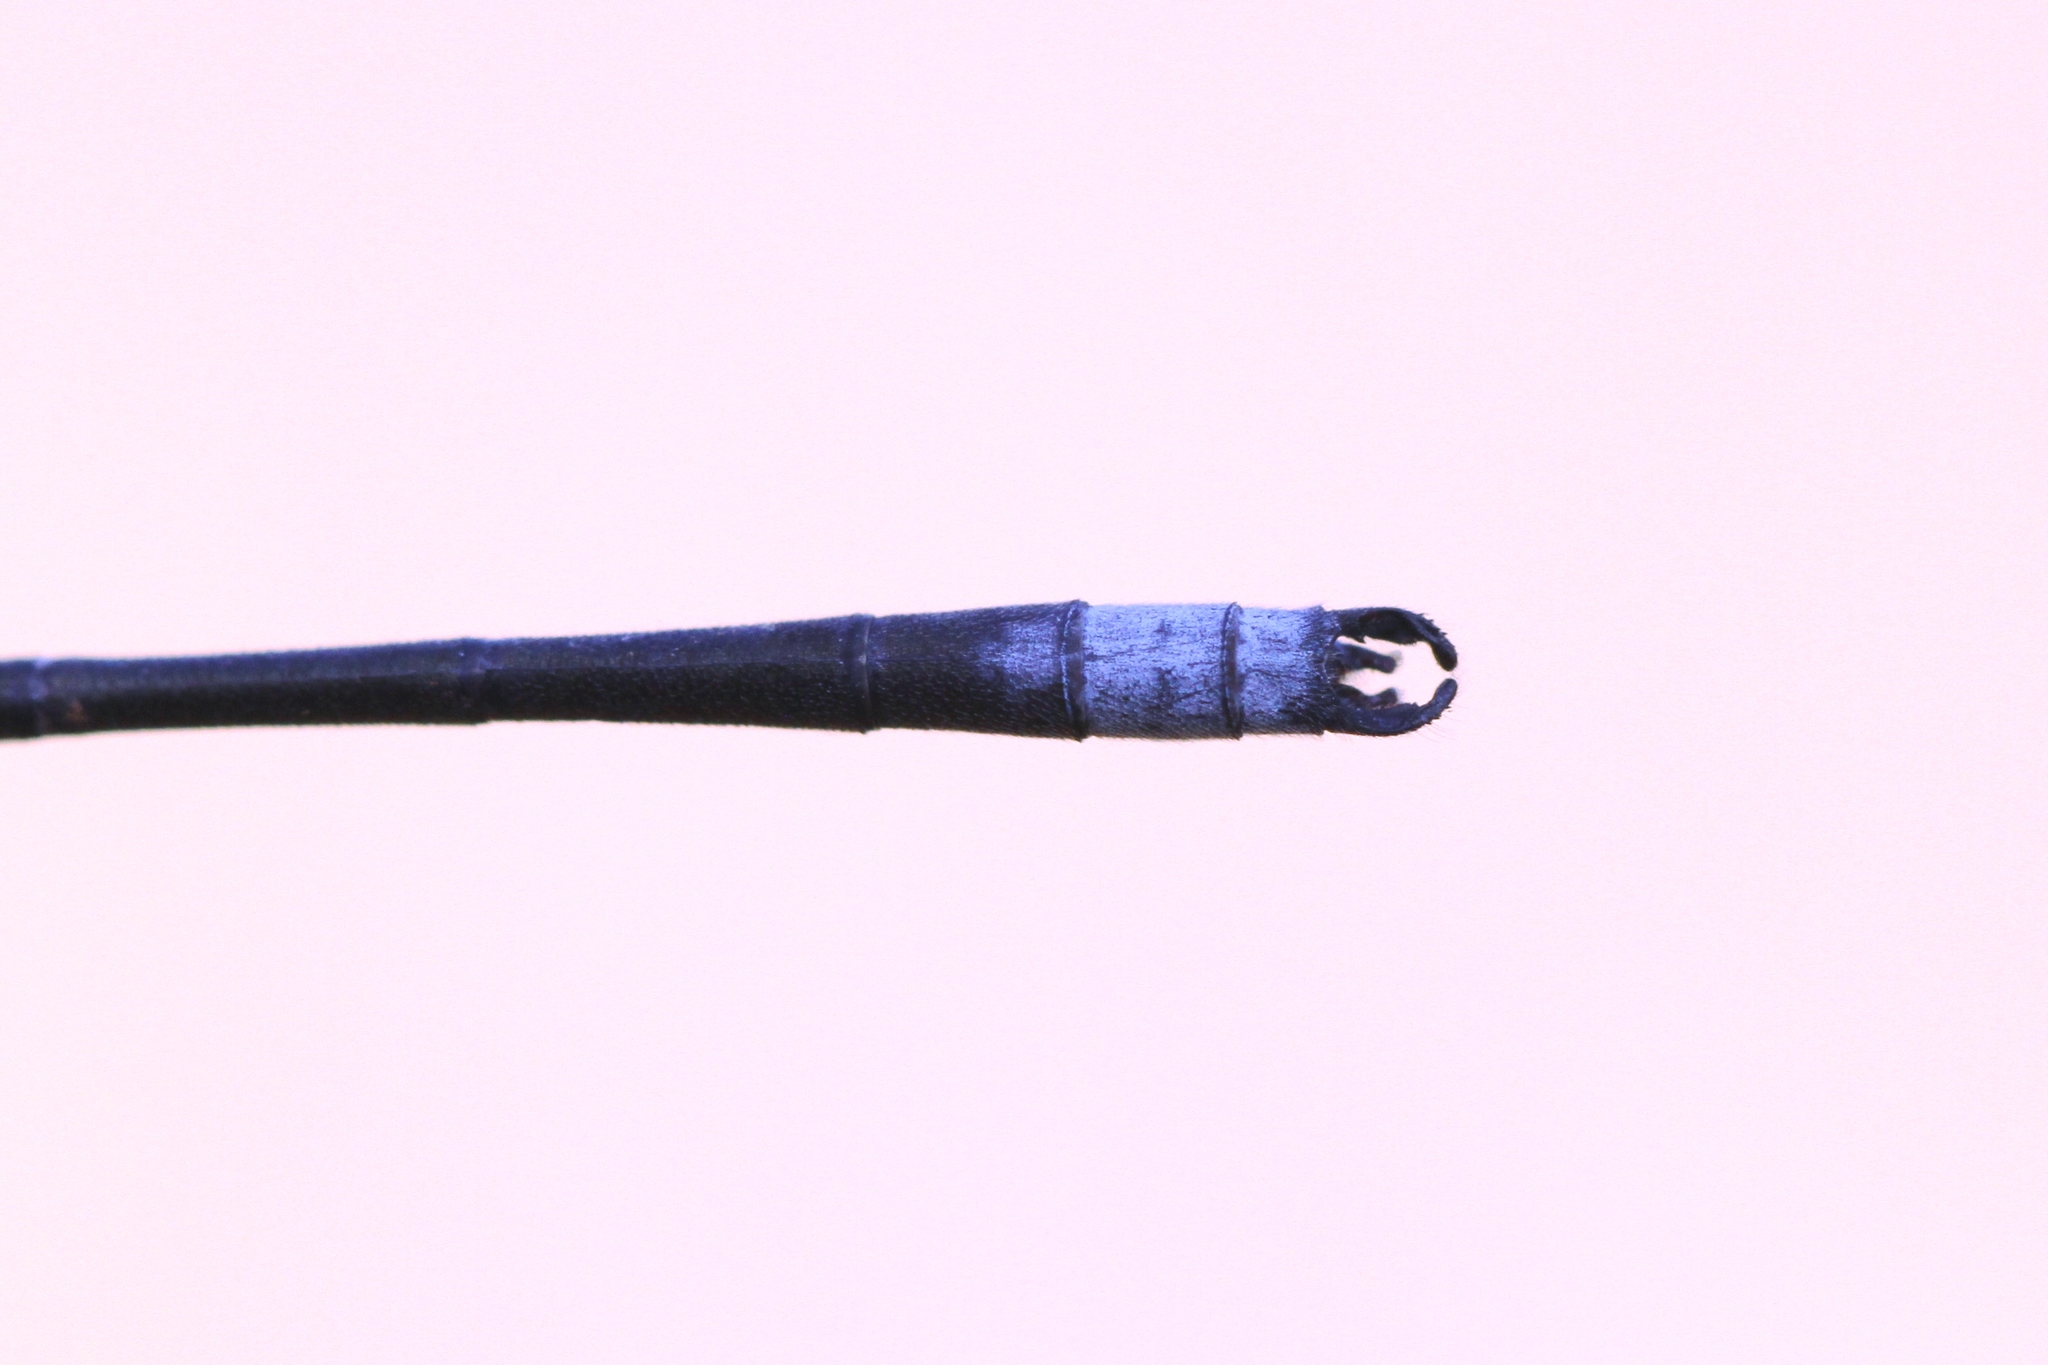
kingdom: Animalia
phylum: Arthropoda
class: Insecta
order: Odonata
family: Lestidae
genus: Lestes
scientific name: Lestes congener
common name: Spotted spreadwing
